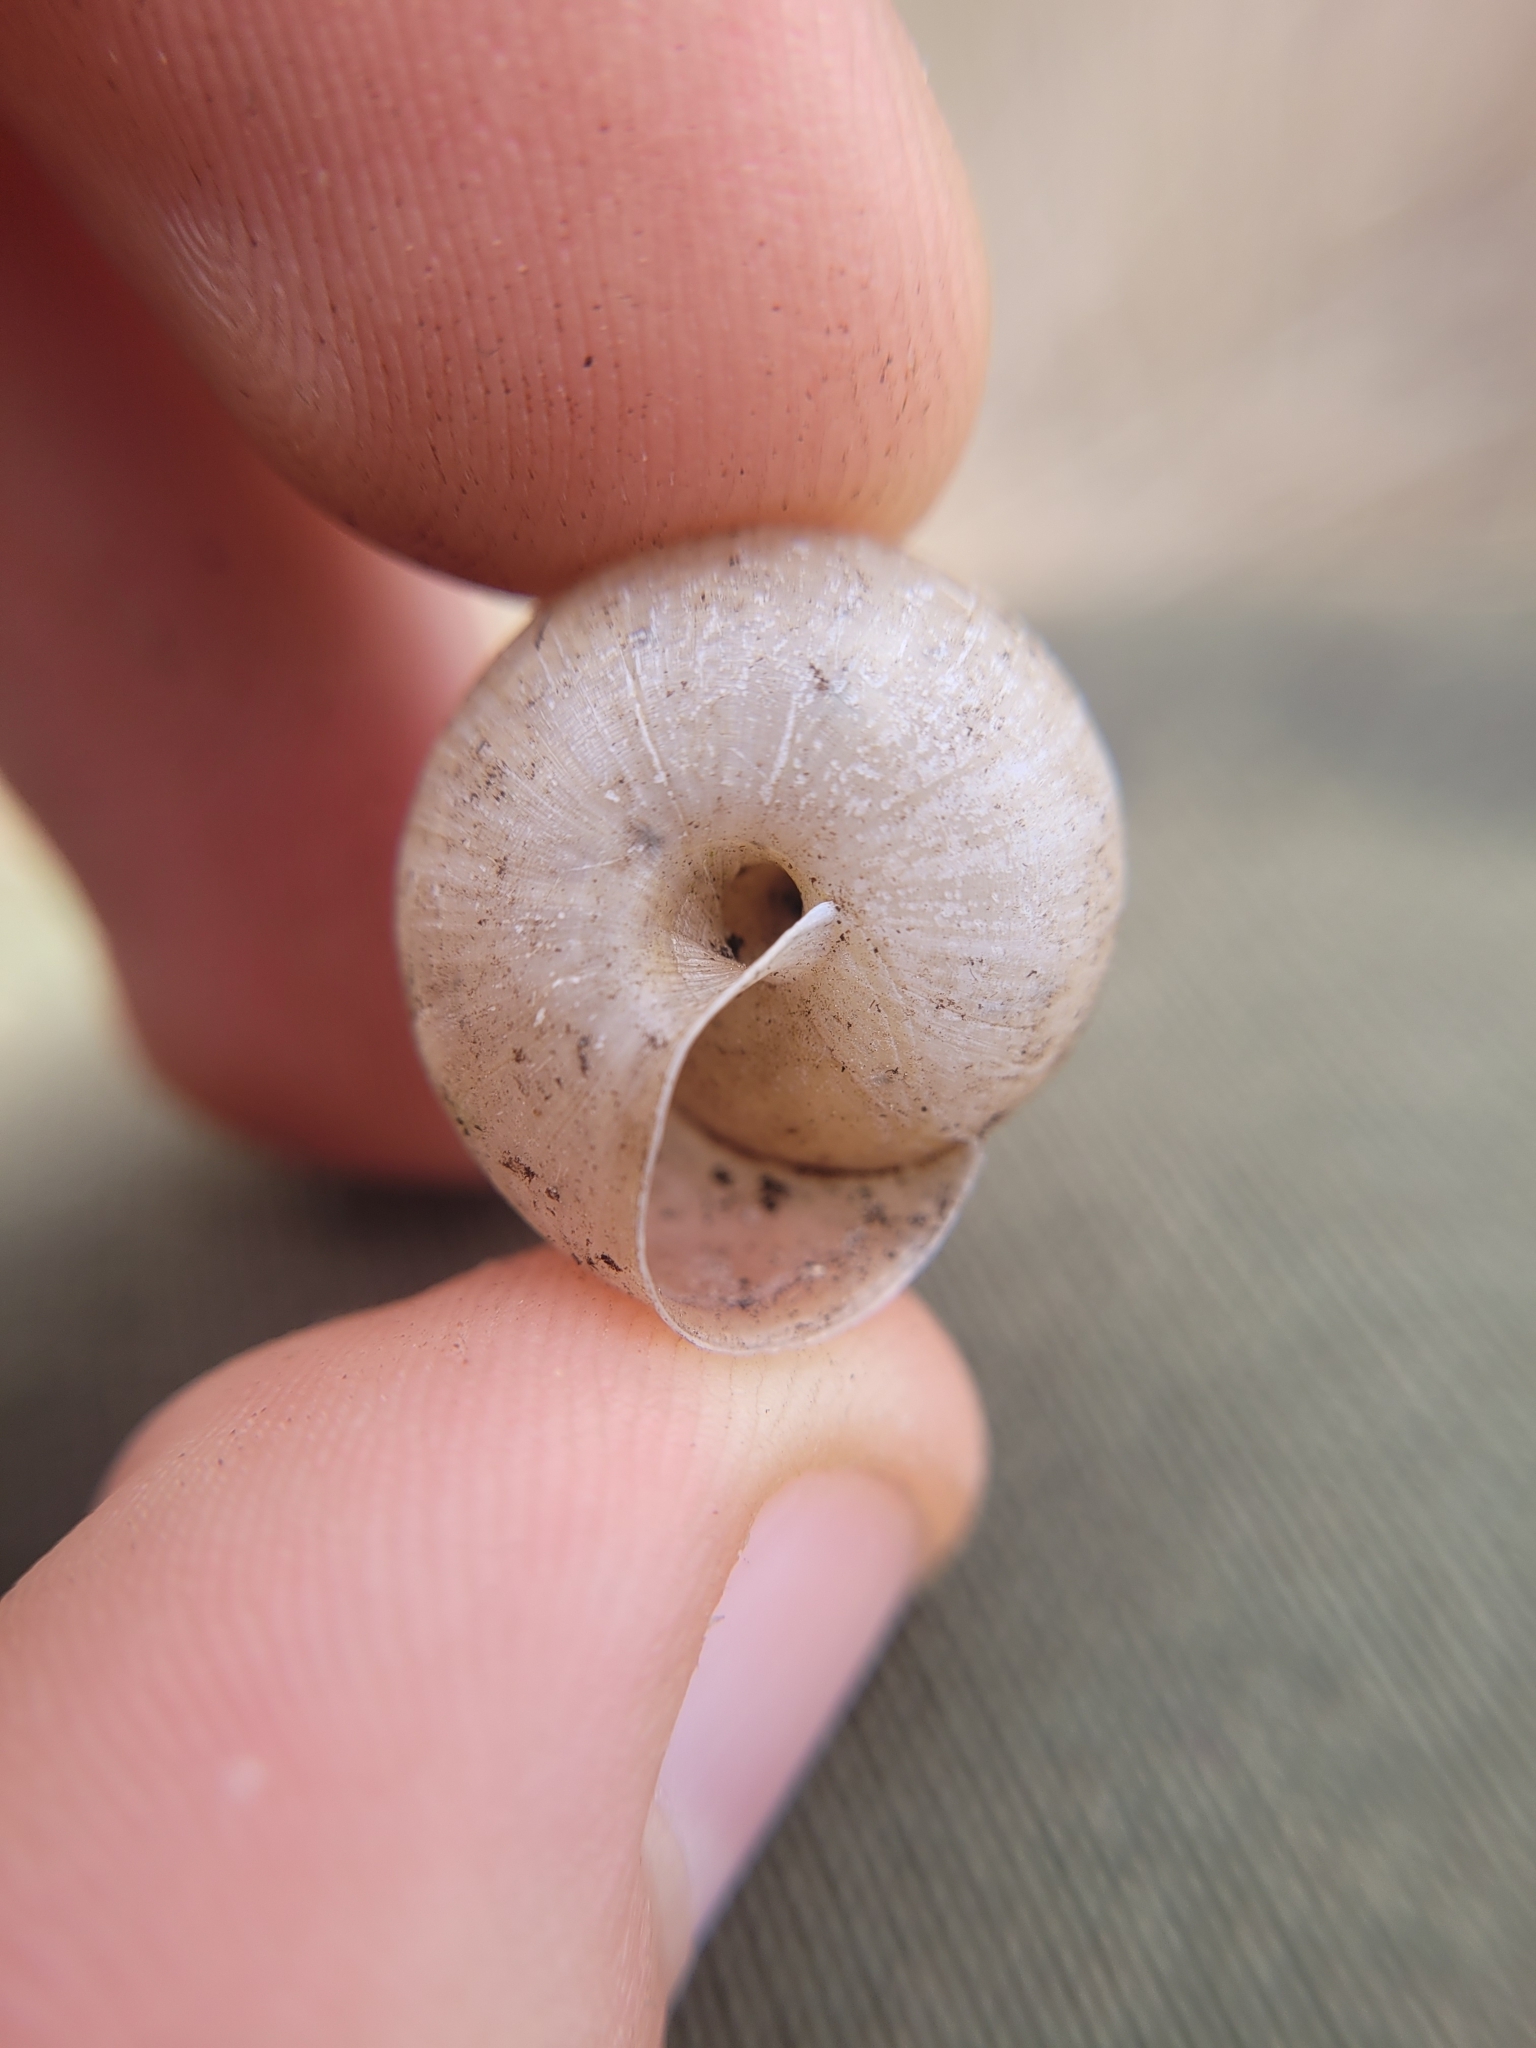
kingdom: Animalia
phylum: Mollusca
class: Gastropoda
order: Stylommatophora
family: Camaenidae
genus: Fruticicola
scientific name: Fruticicola fruticum
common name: Bush snail
